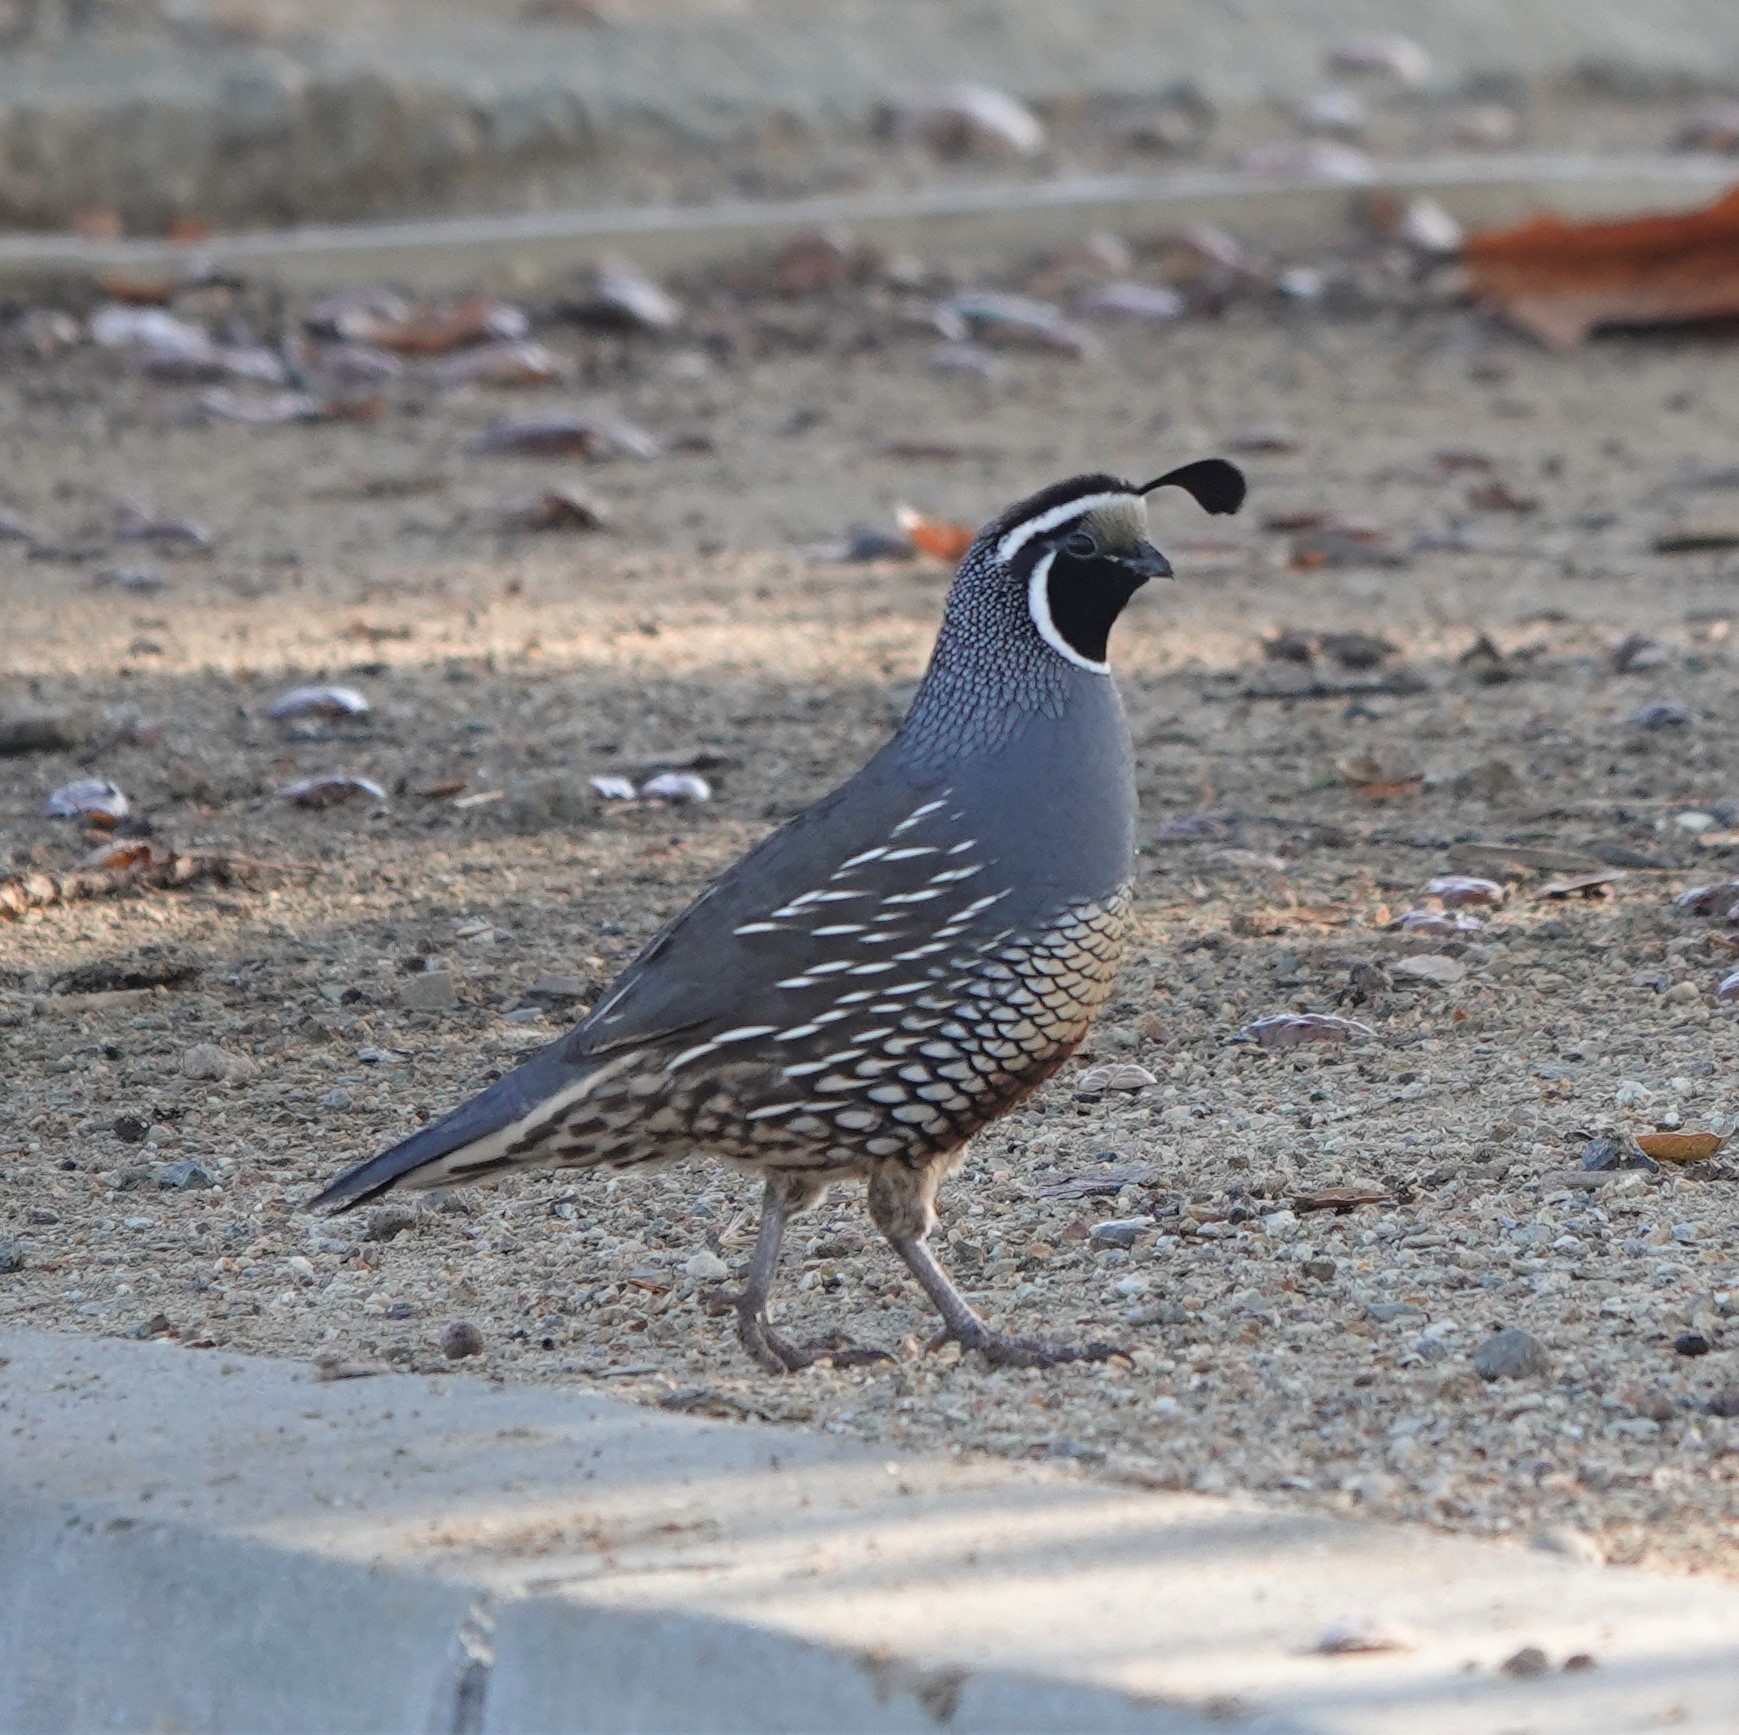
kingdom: Animalia
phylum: Chordata
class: Aves
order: Galliformes
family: Odontophoridae
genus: Callipepla
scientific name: Callipepla californica
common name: California quail
